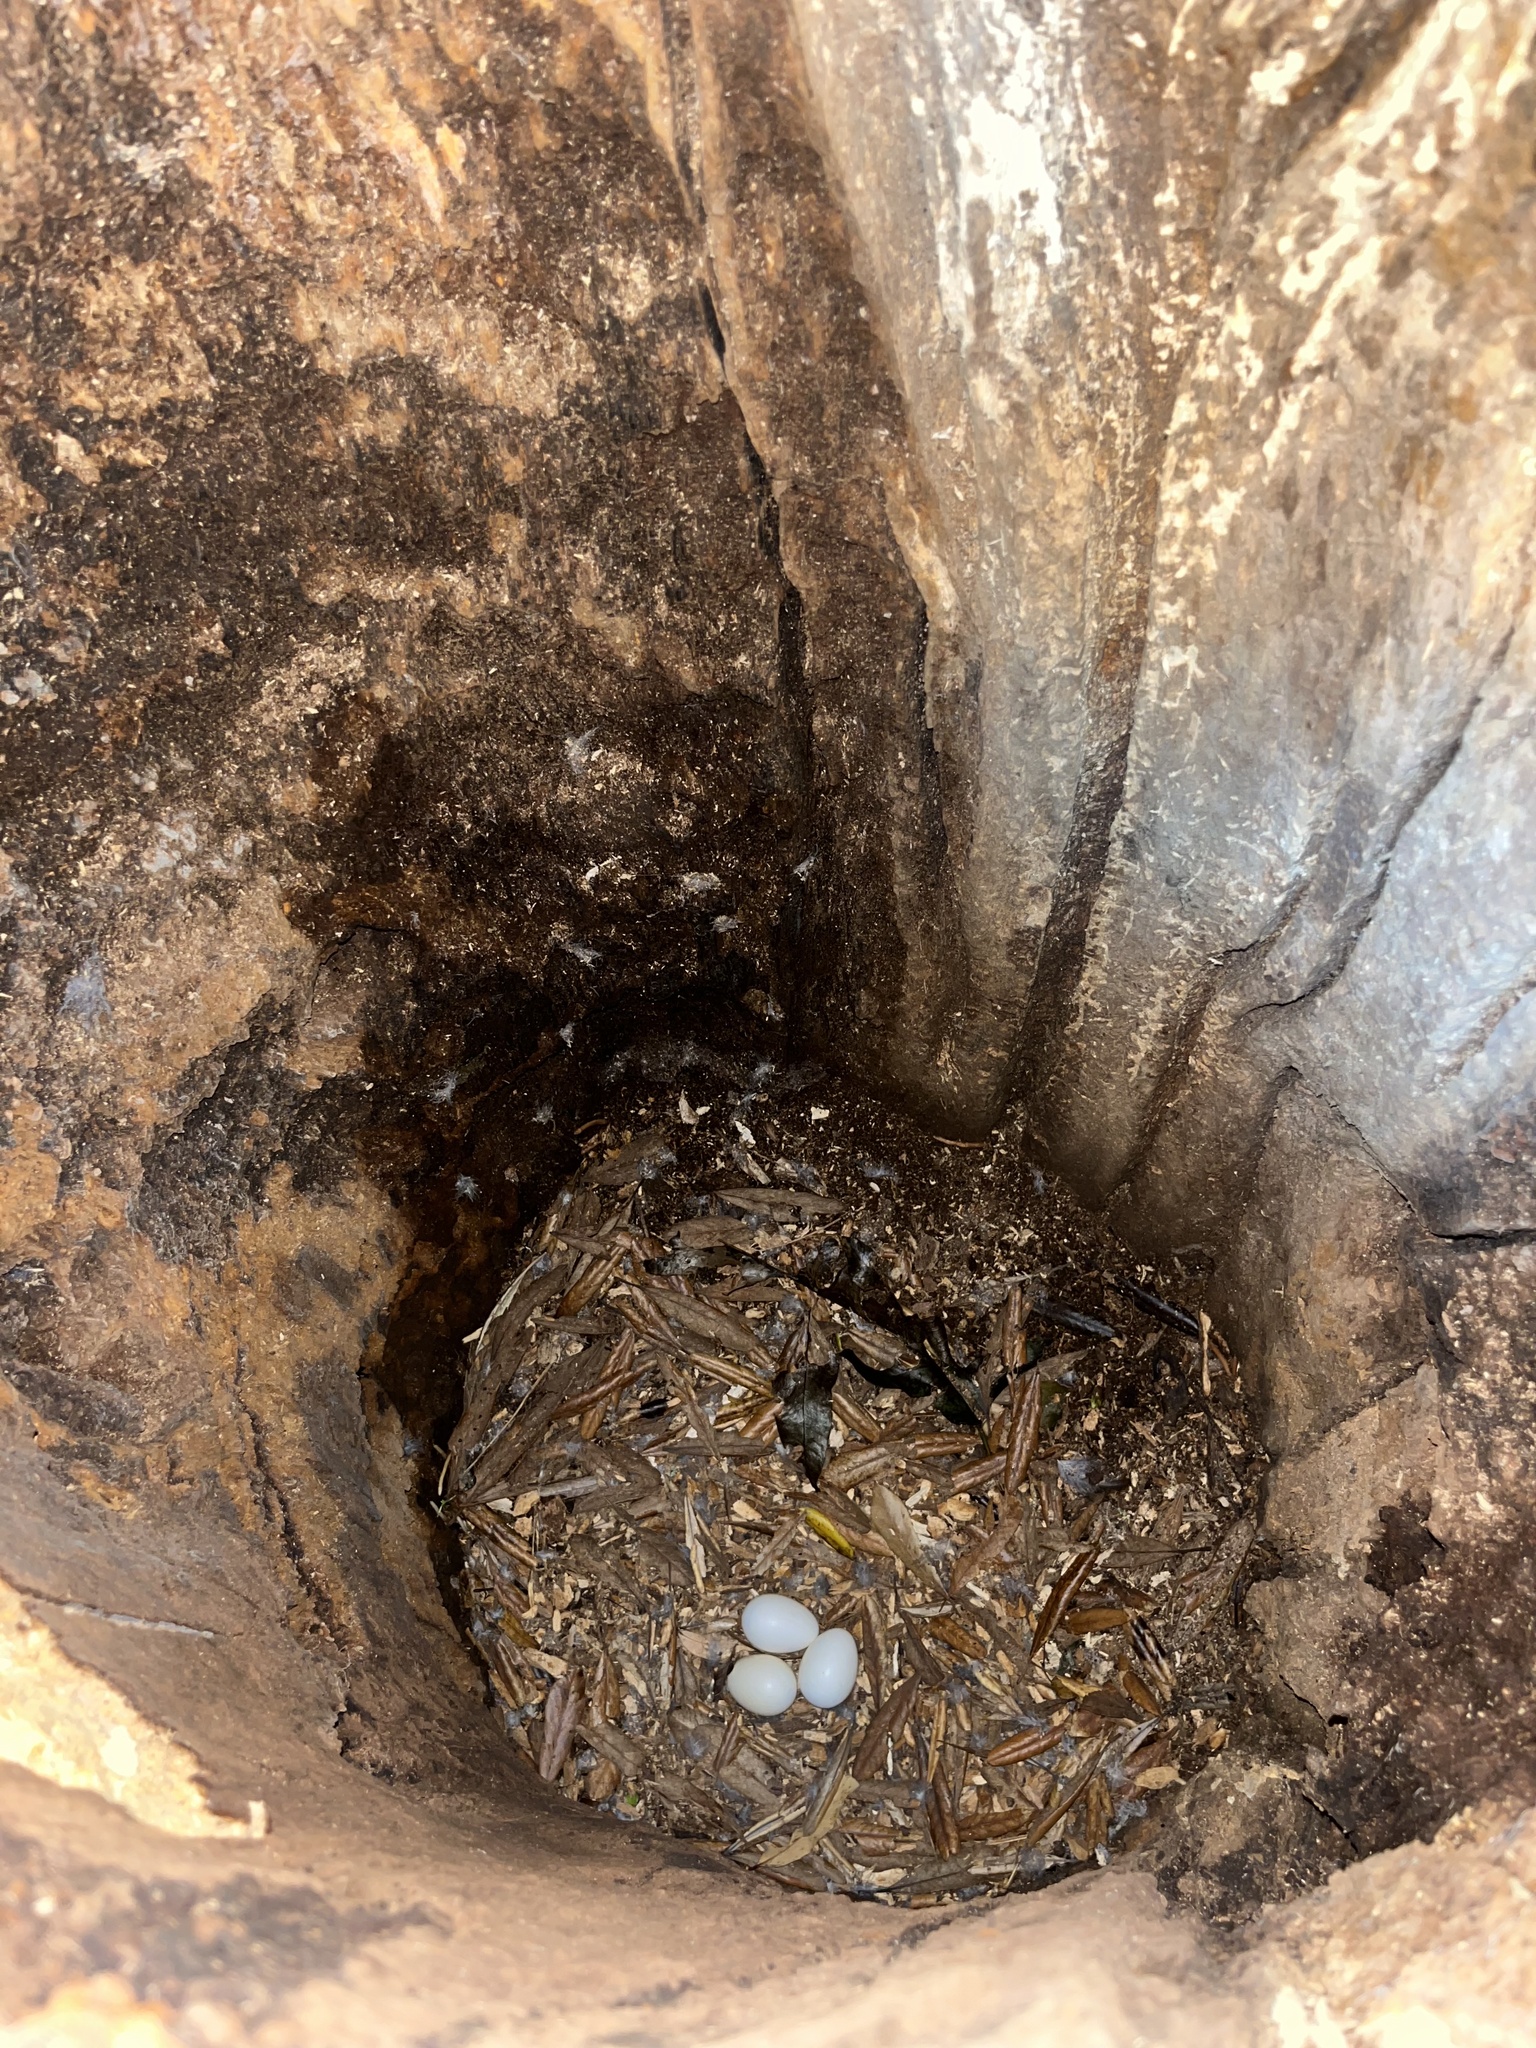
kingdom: Animalia
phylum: Chordata
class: Aves
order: Psittaciformes
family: Psittacidae
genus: Nestor
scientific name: Nestor meridionalis
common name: New zealand kaka
